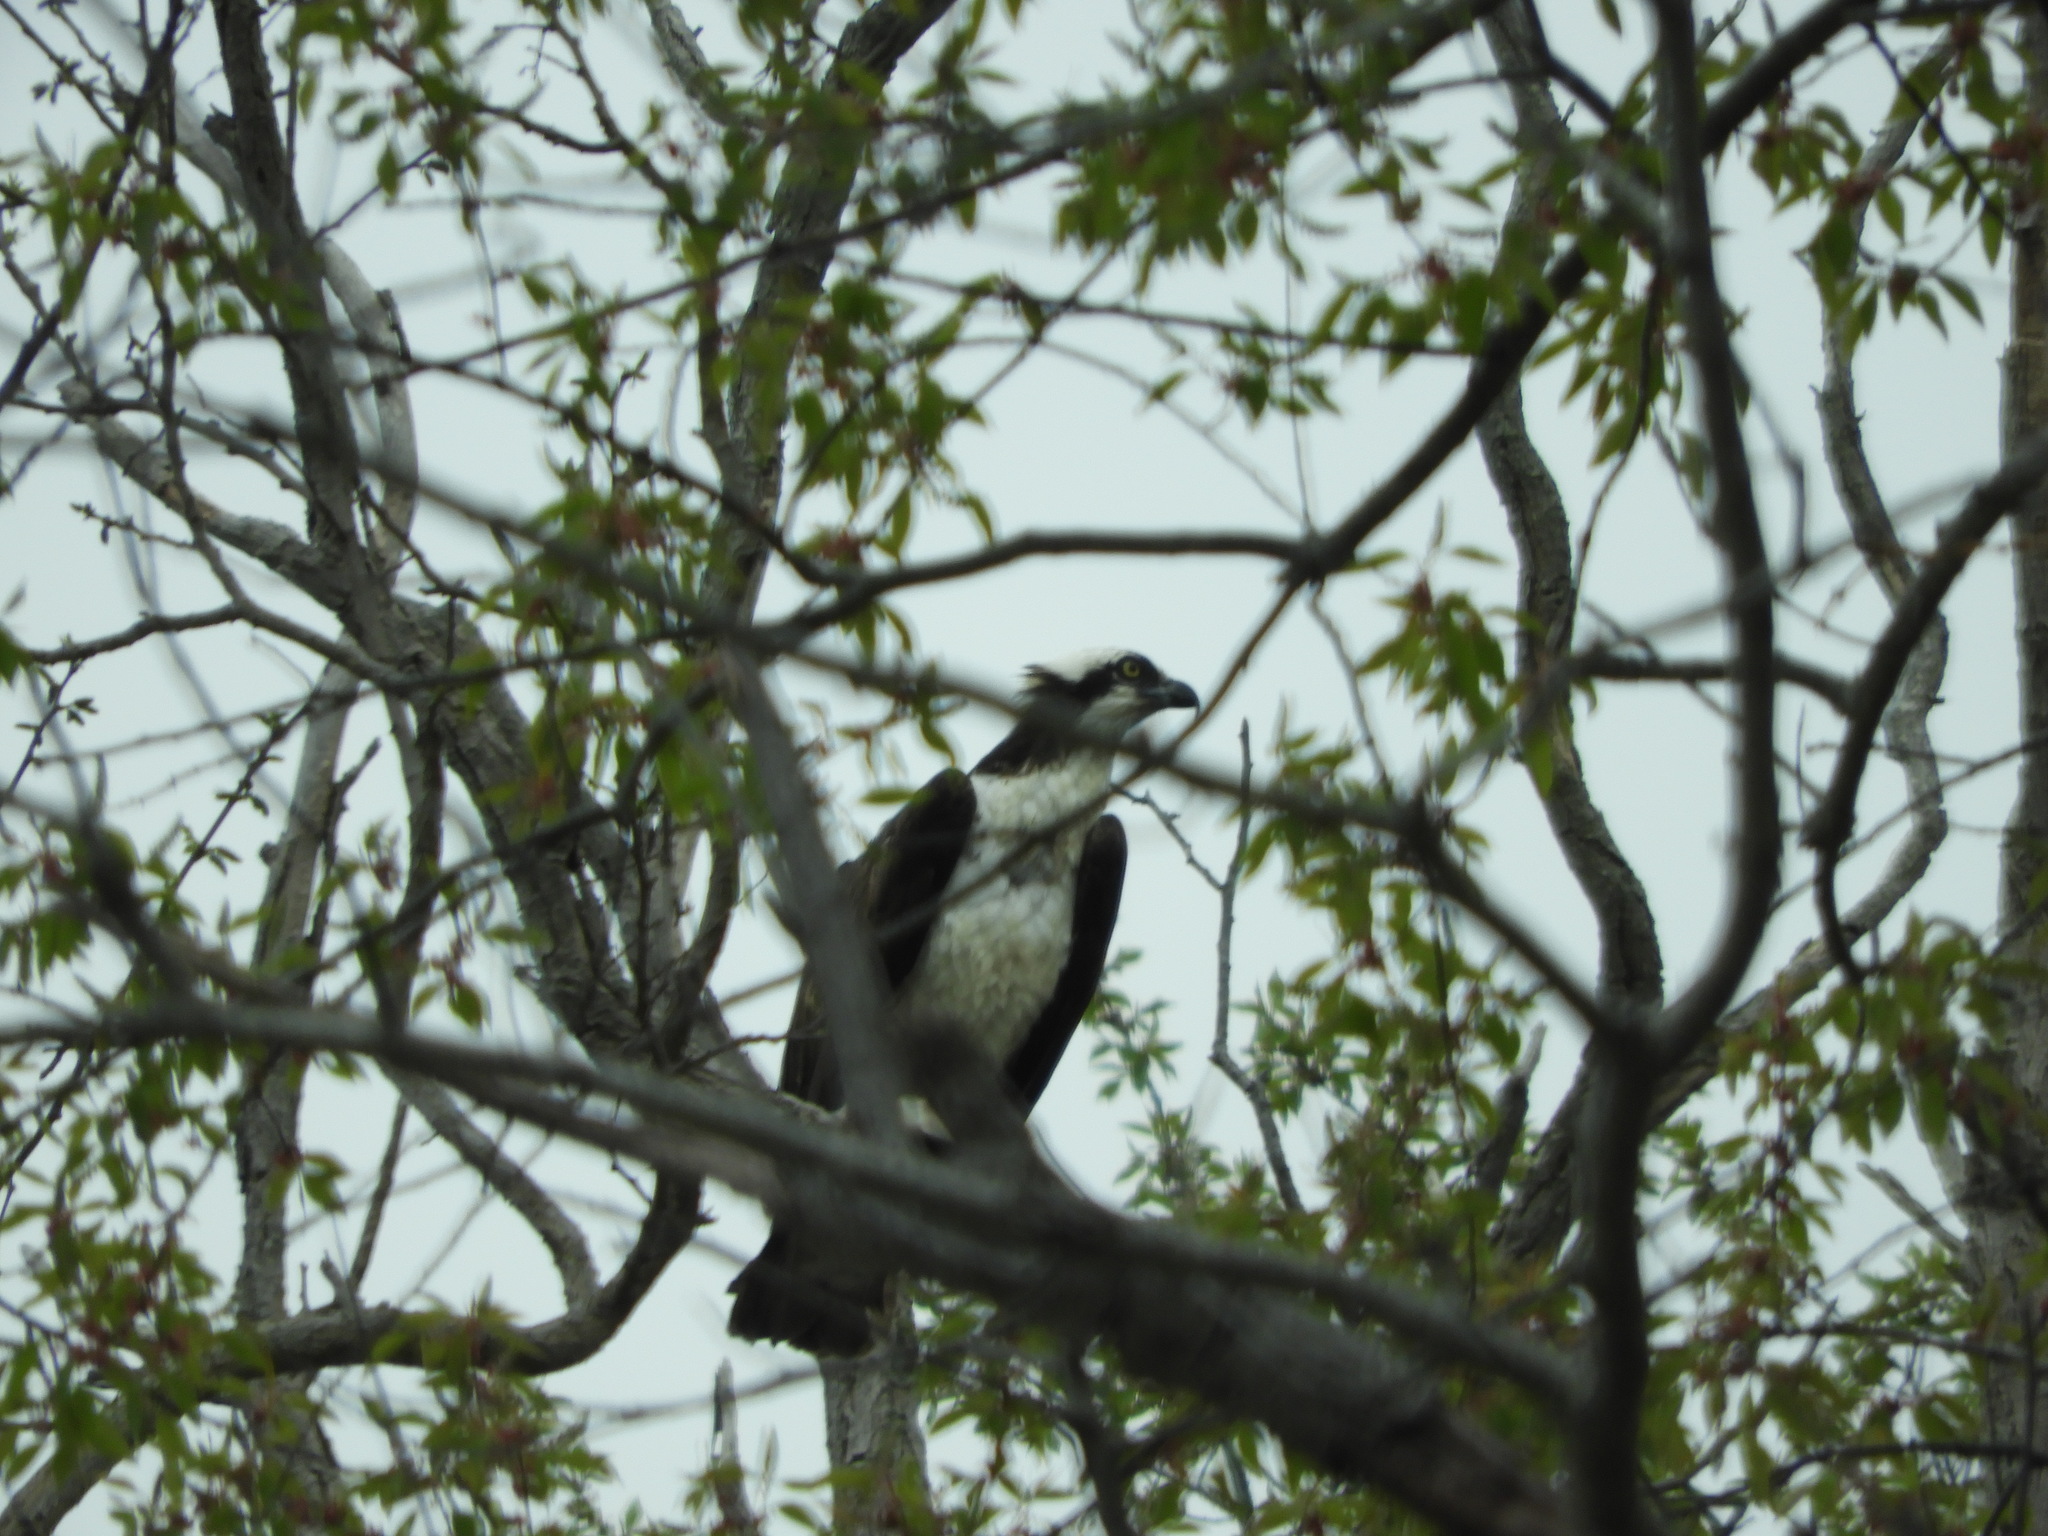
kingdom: Animalia
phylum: Chordata
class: Aves
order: Accipitriformes
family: Pandionidae
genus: Pandion
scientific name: Pandion haliaetus
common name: Osprey
